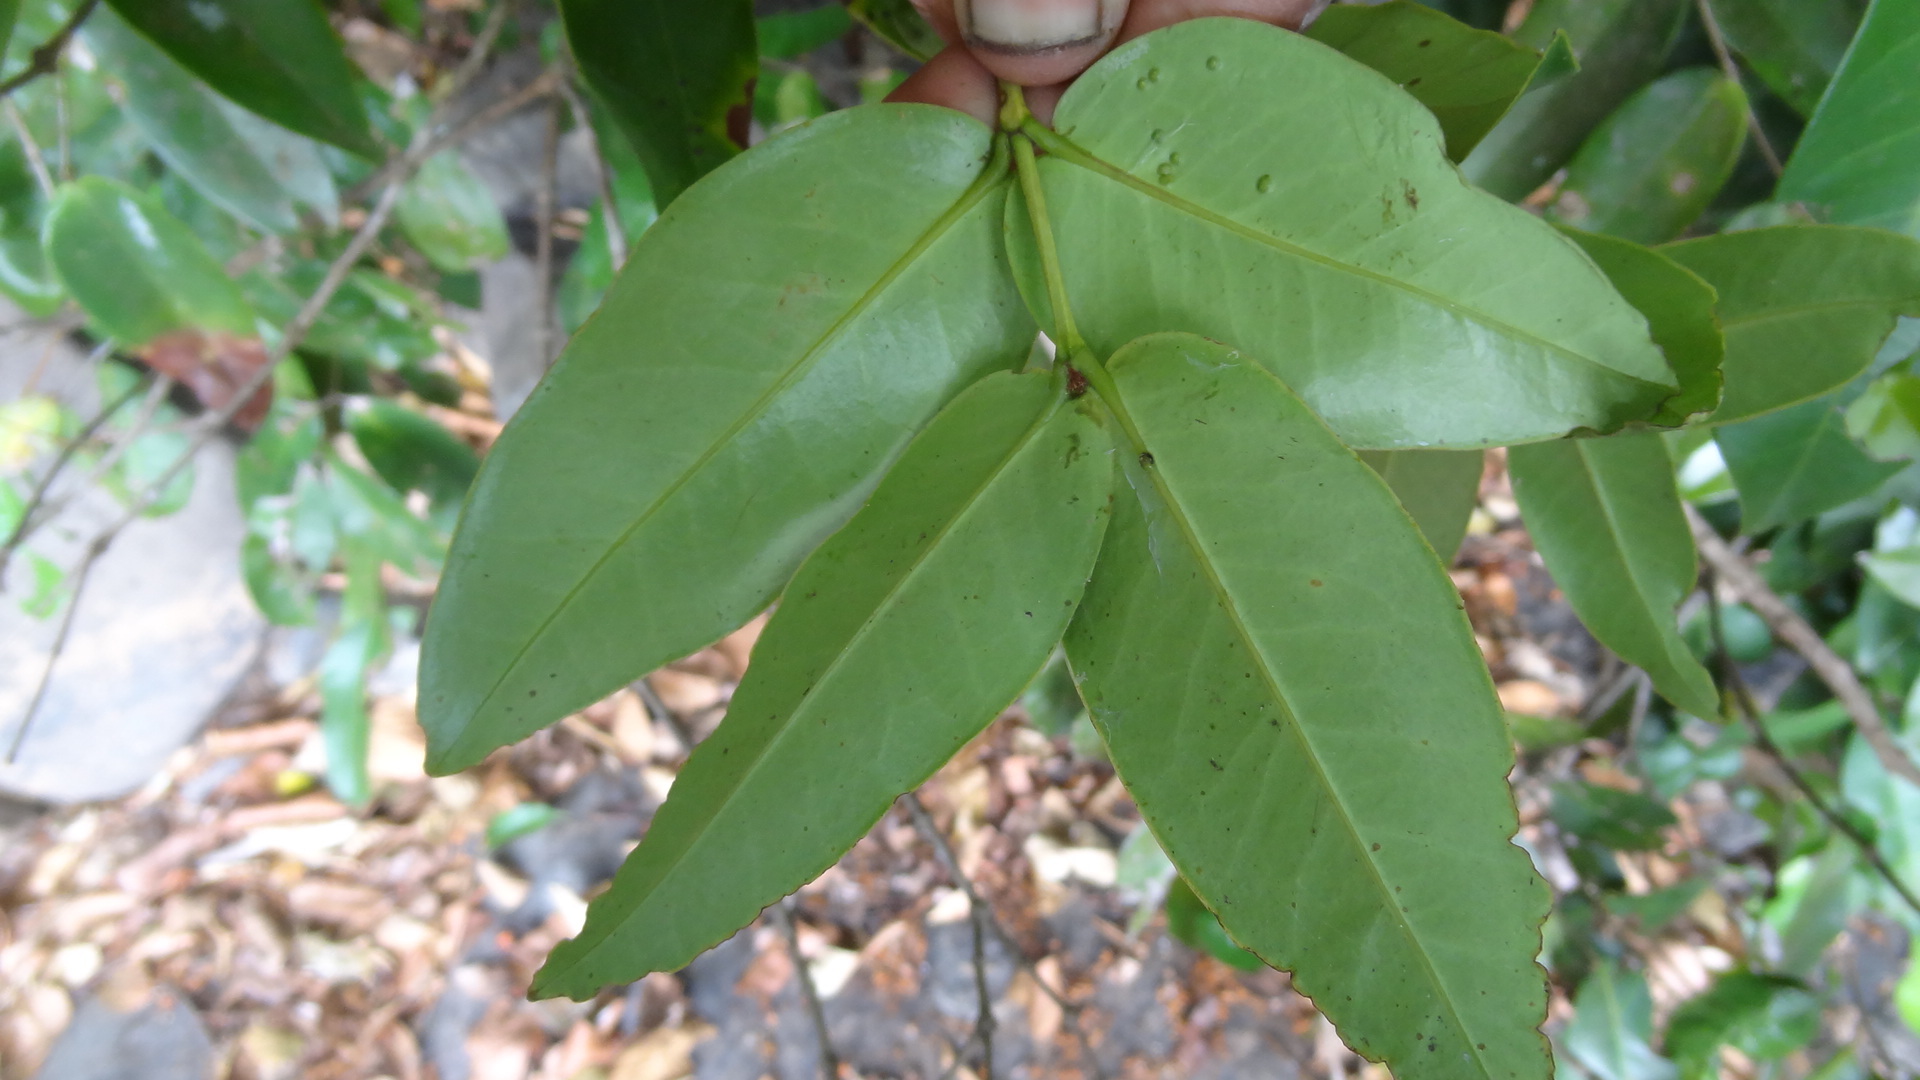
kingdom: Plantae
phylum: Tracheophyta
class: Magnoliopsida
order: Myrtales
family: Melastomataceae
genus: Memecylon
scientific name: Memecylon sessile
